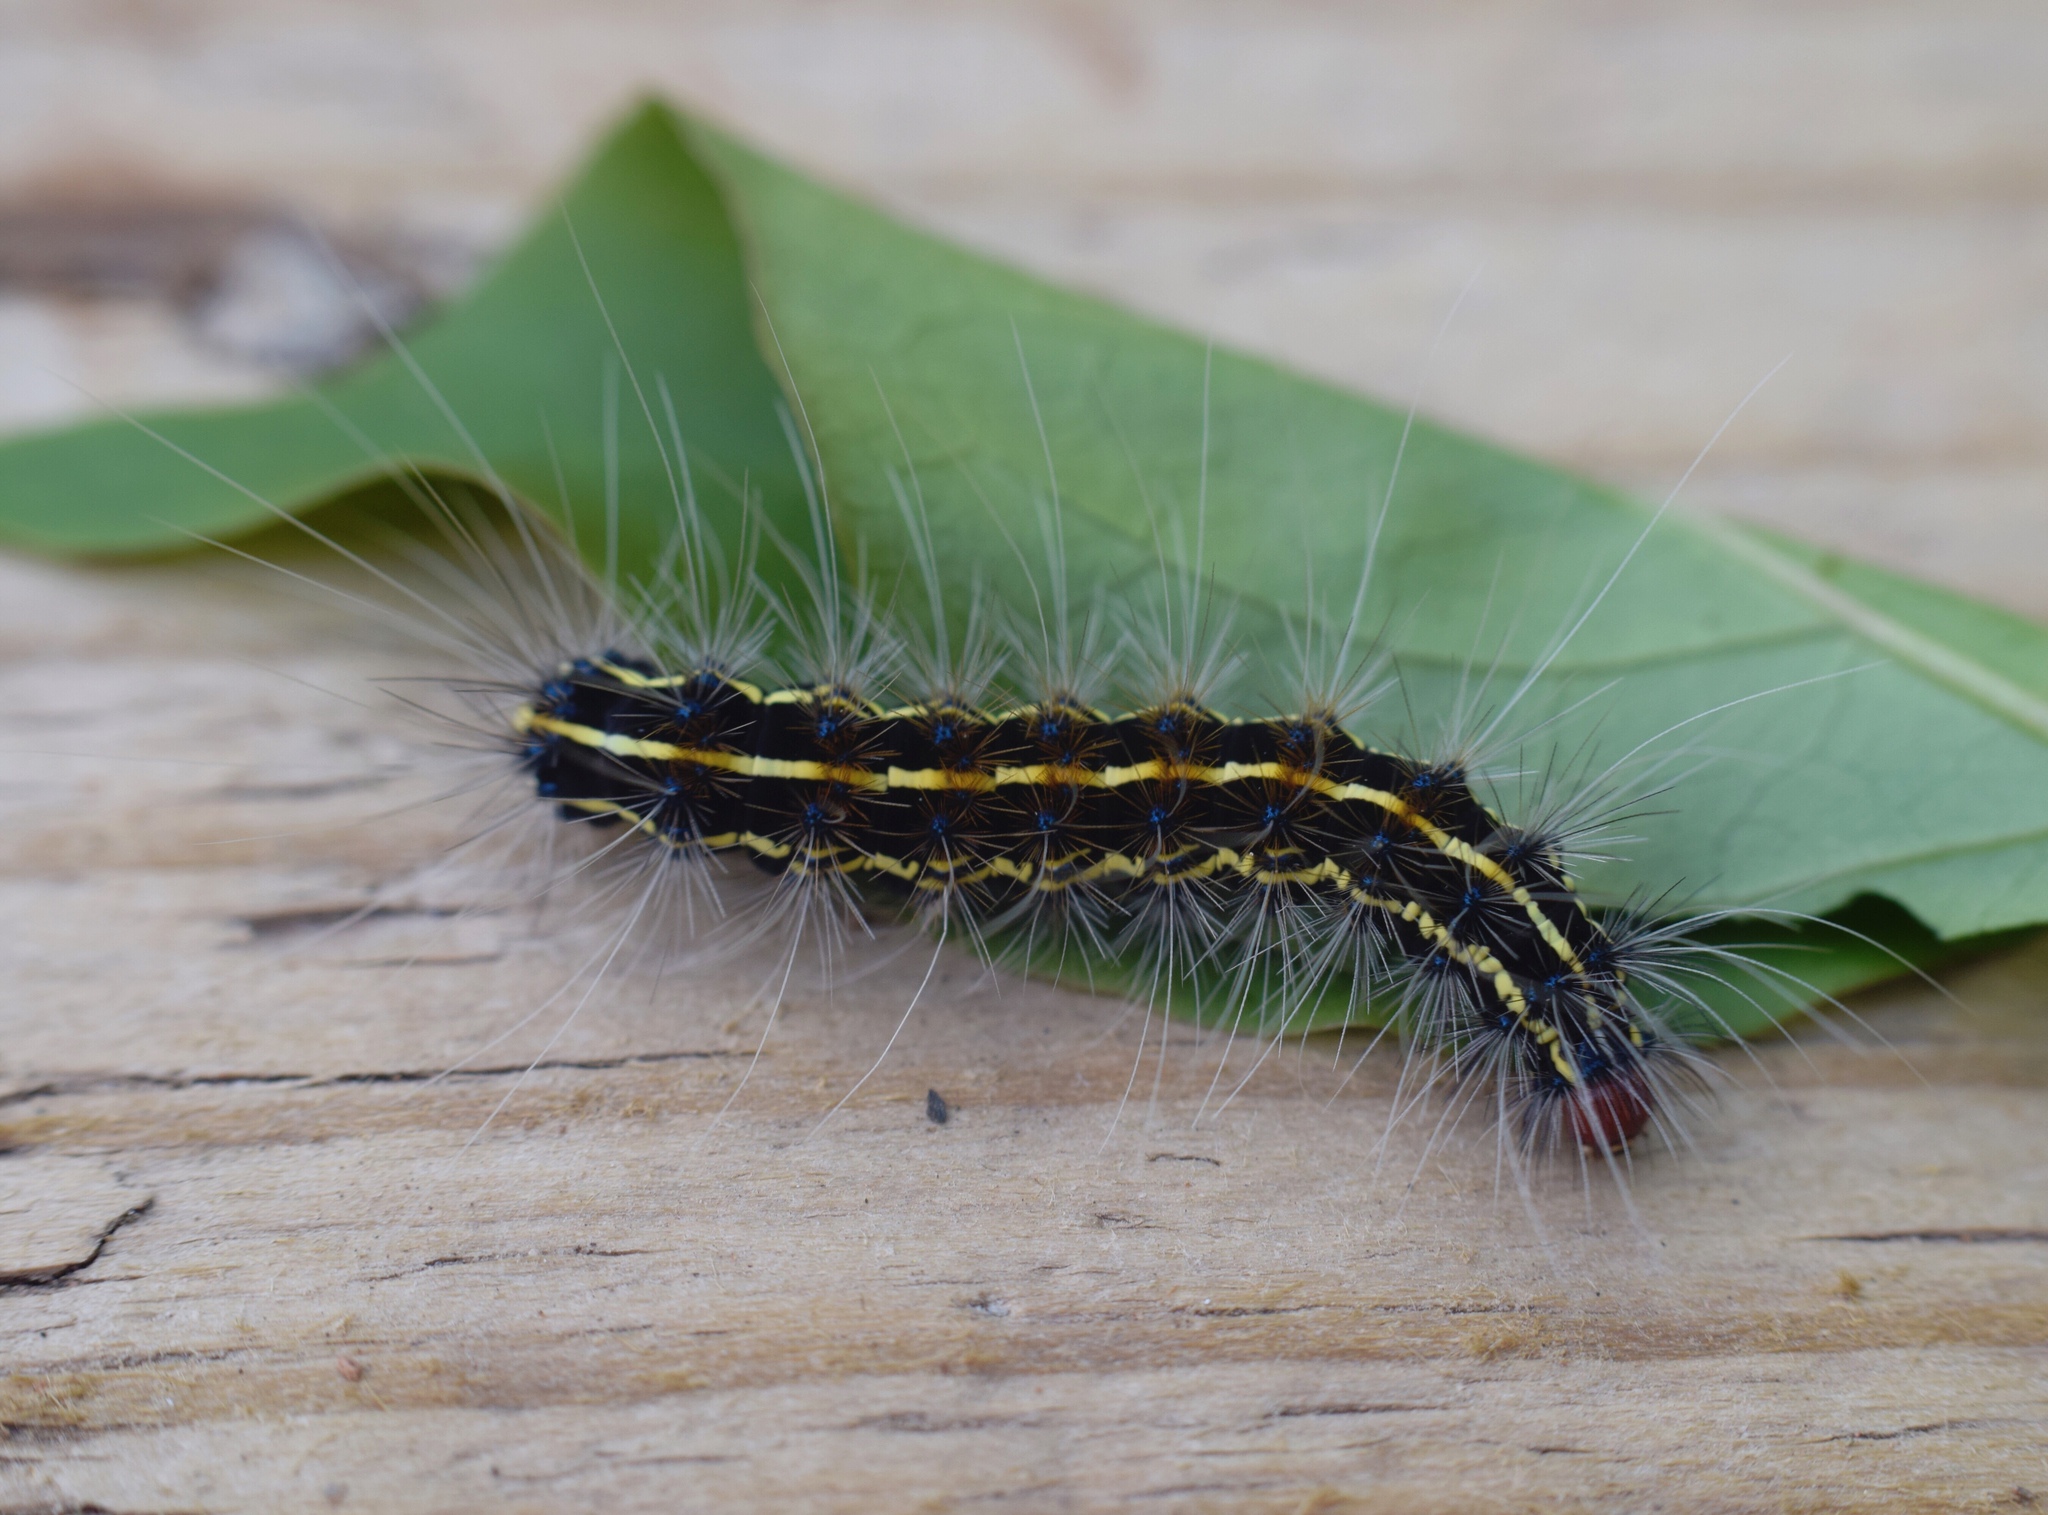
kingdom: Animalia
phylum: Arthropoda
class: Insecta
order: Lepidoptera
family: Erebidae
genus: Leucaloa
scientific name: Leucaloa eugraphica
